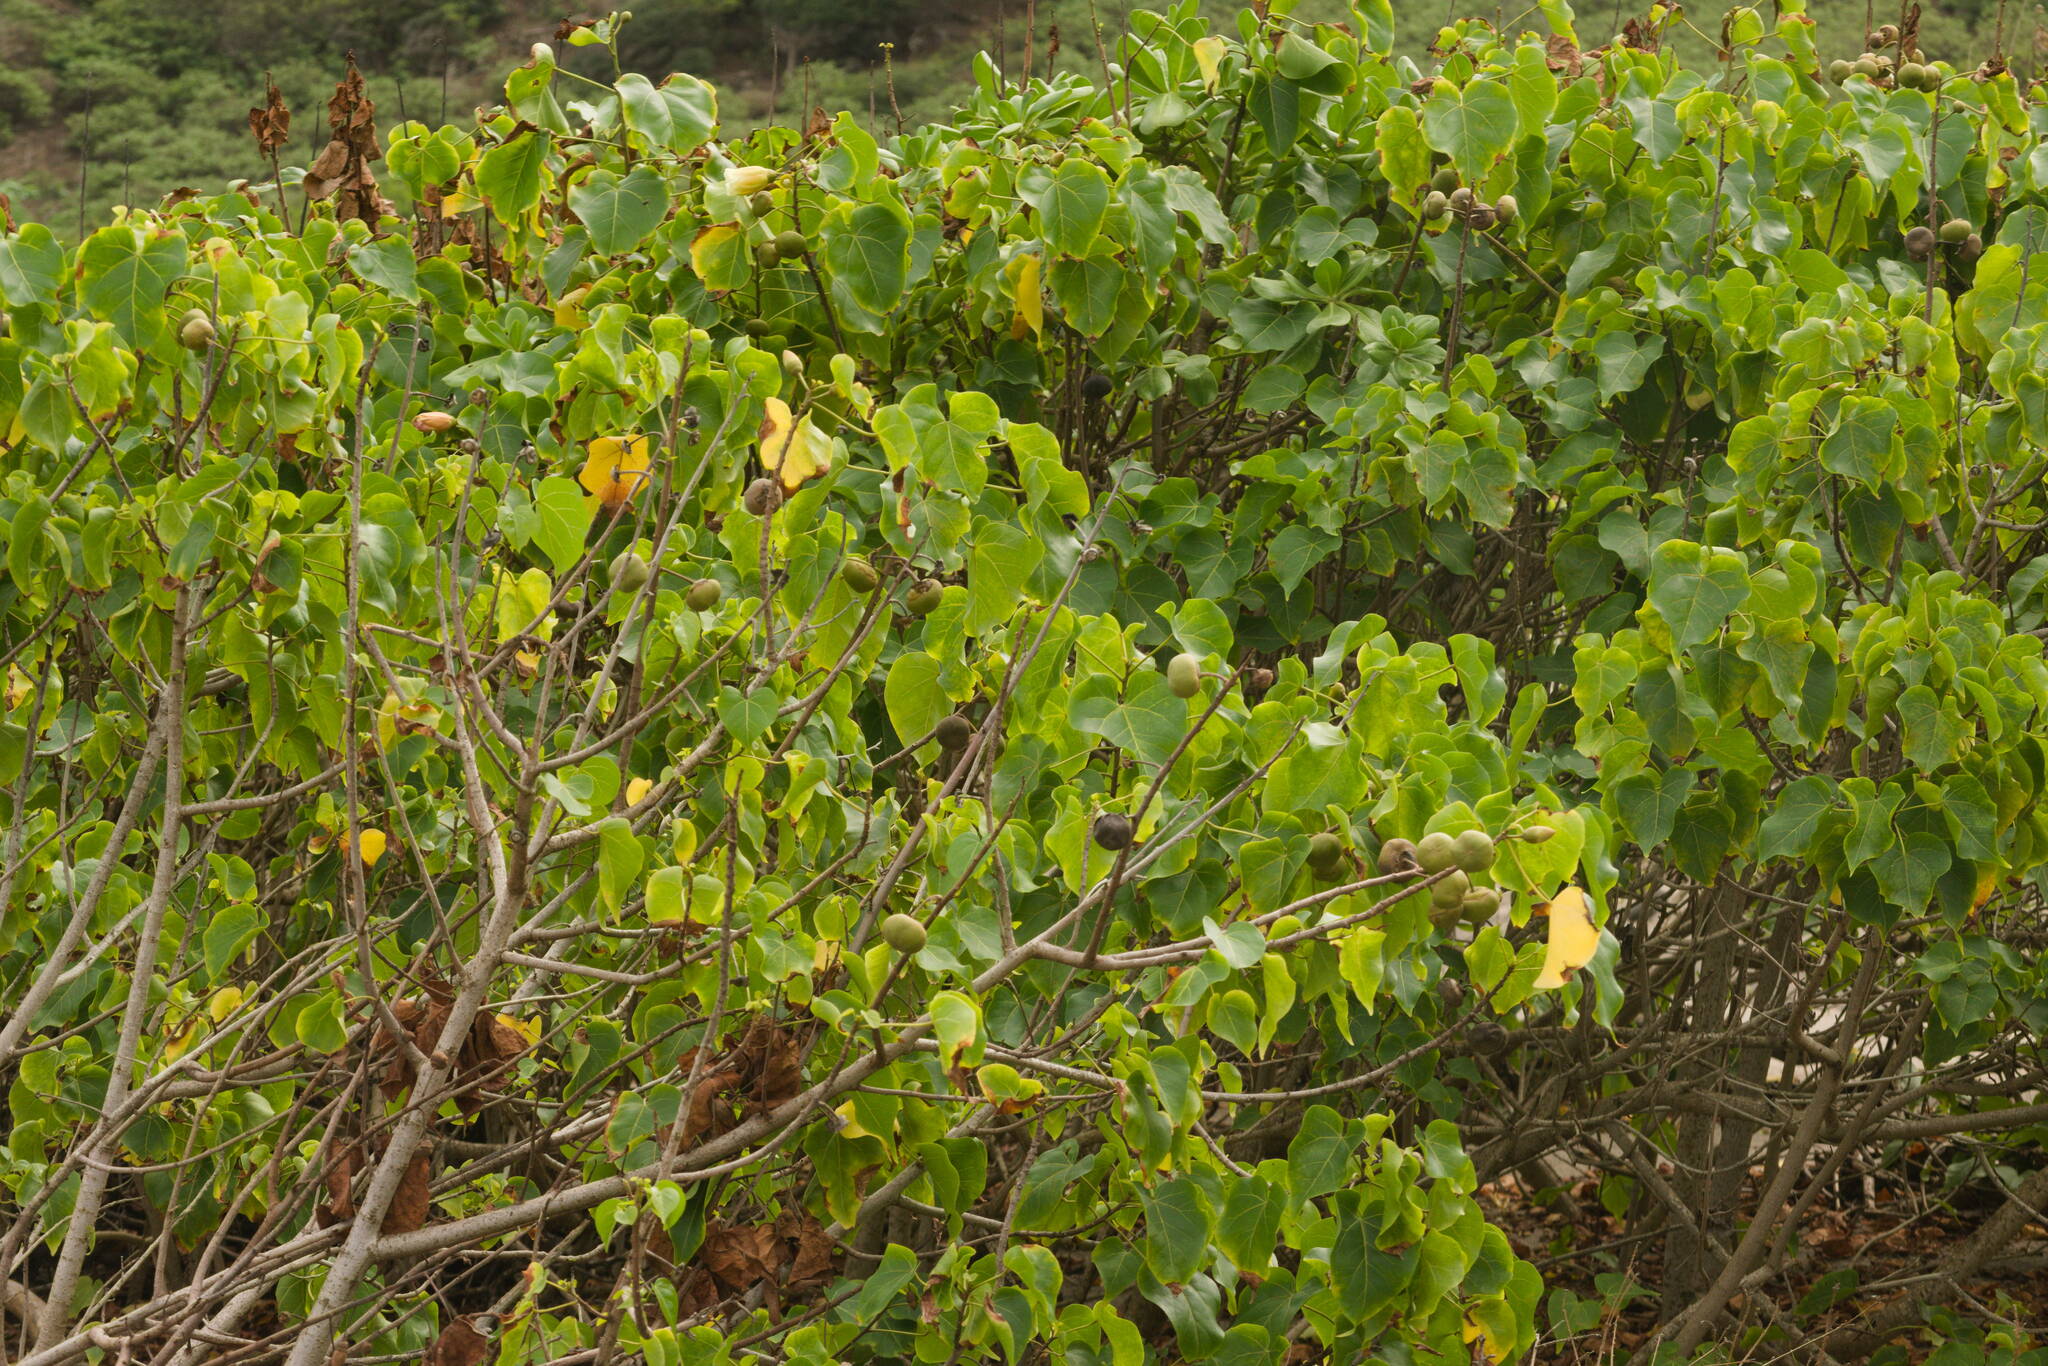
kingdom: Plantae
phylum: Tracheophyta
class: Magnoliopsida
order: Malvales
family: Malvaceae
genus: Thespesia
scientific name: Thespesia populnea
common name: Seaside mahoe
